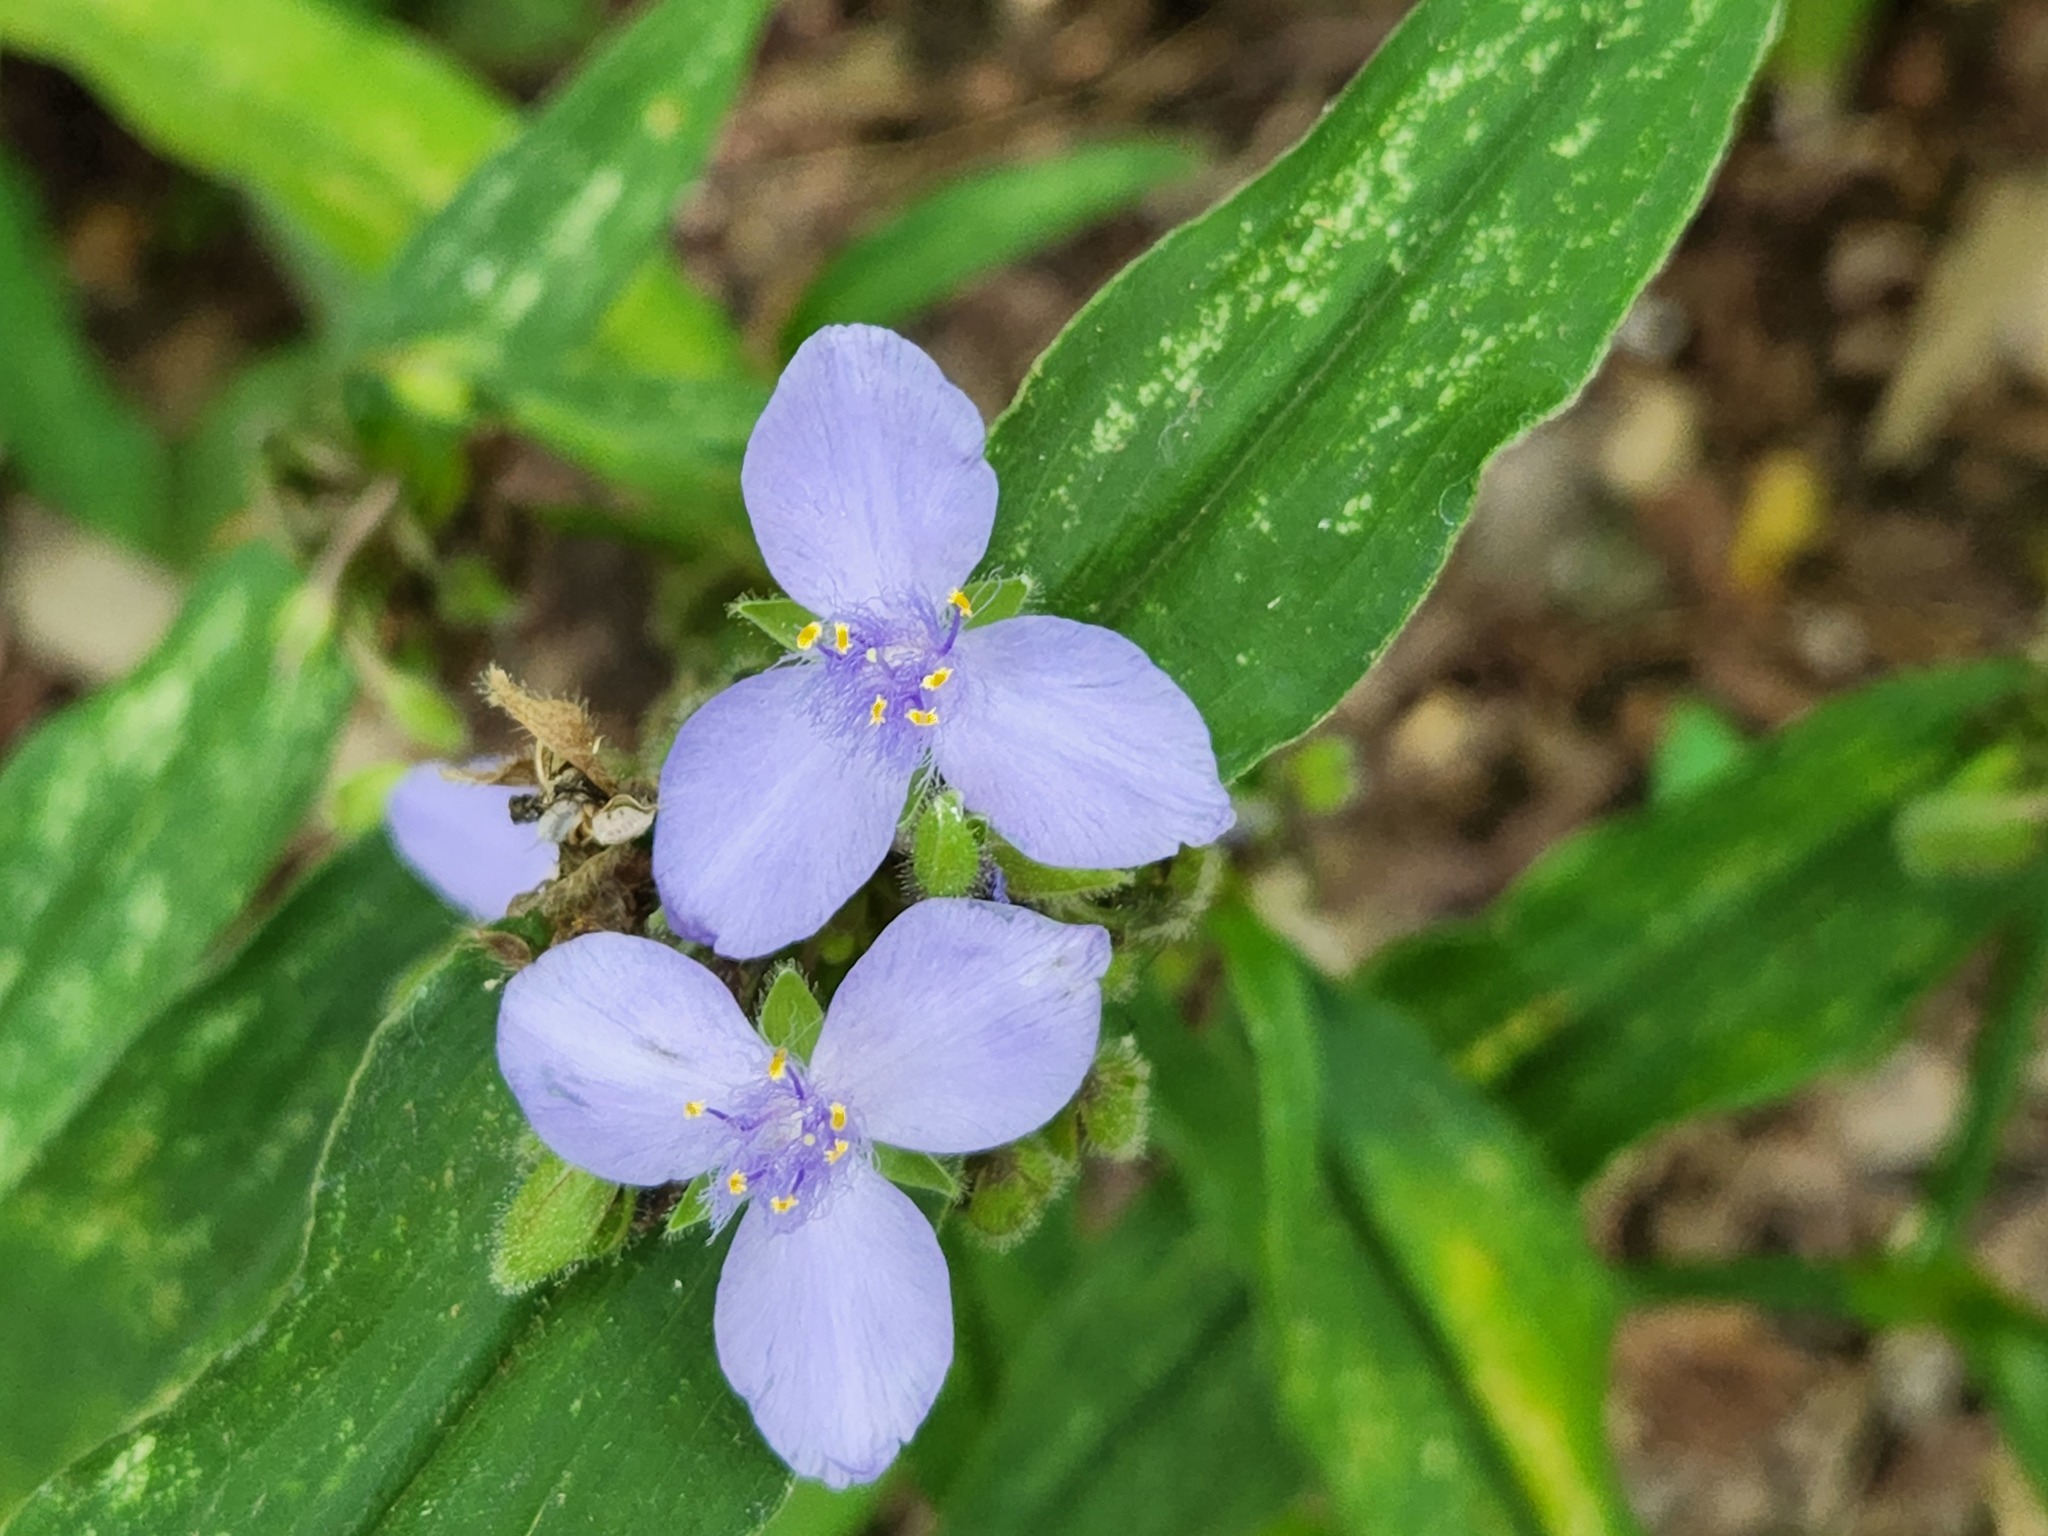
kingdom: Plantae
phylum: Tracheophyta
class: Liliopsida
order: Commelinales
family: Commelinaceae
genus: Tradescantia
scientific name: Tradescantia subaspera
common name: Wide-leaf spiderwort
